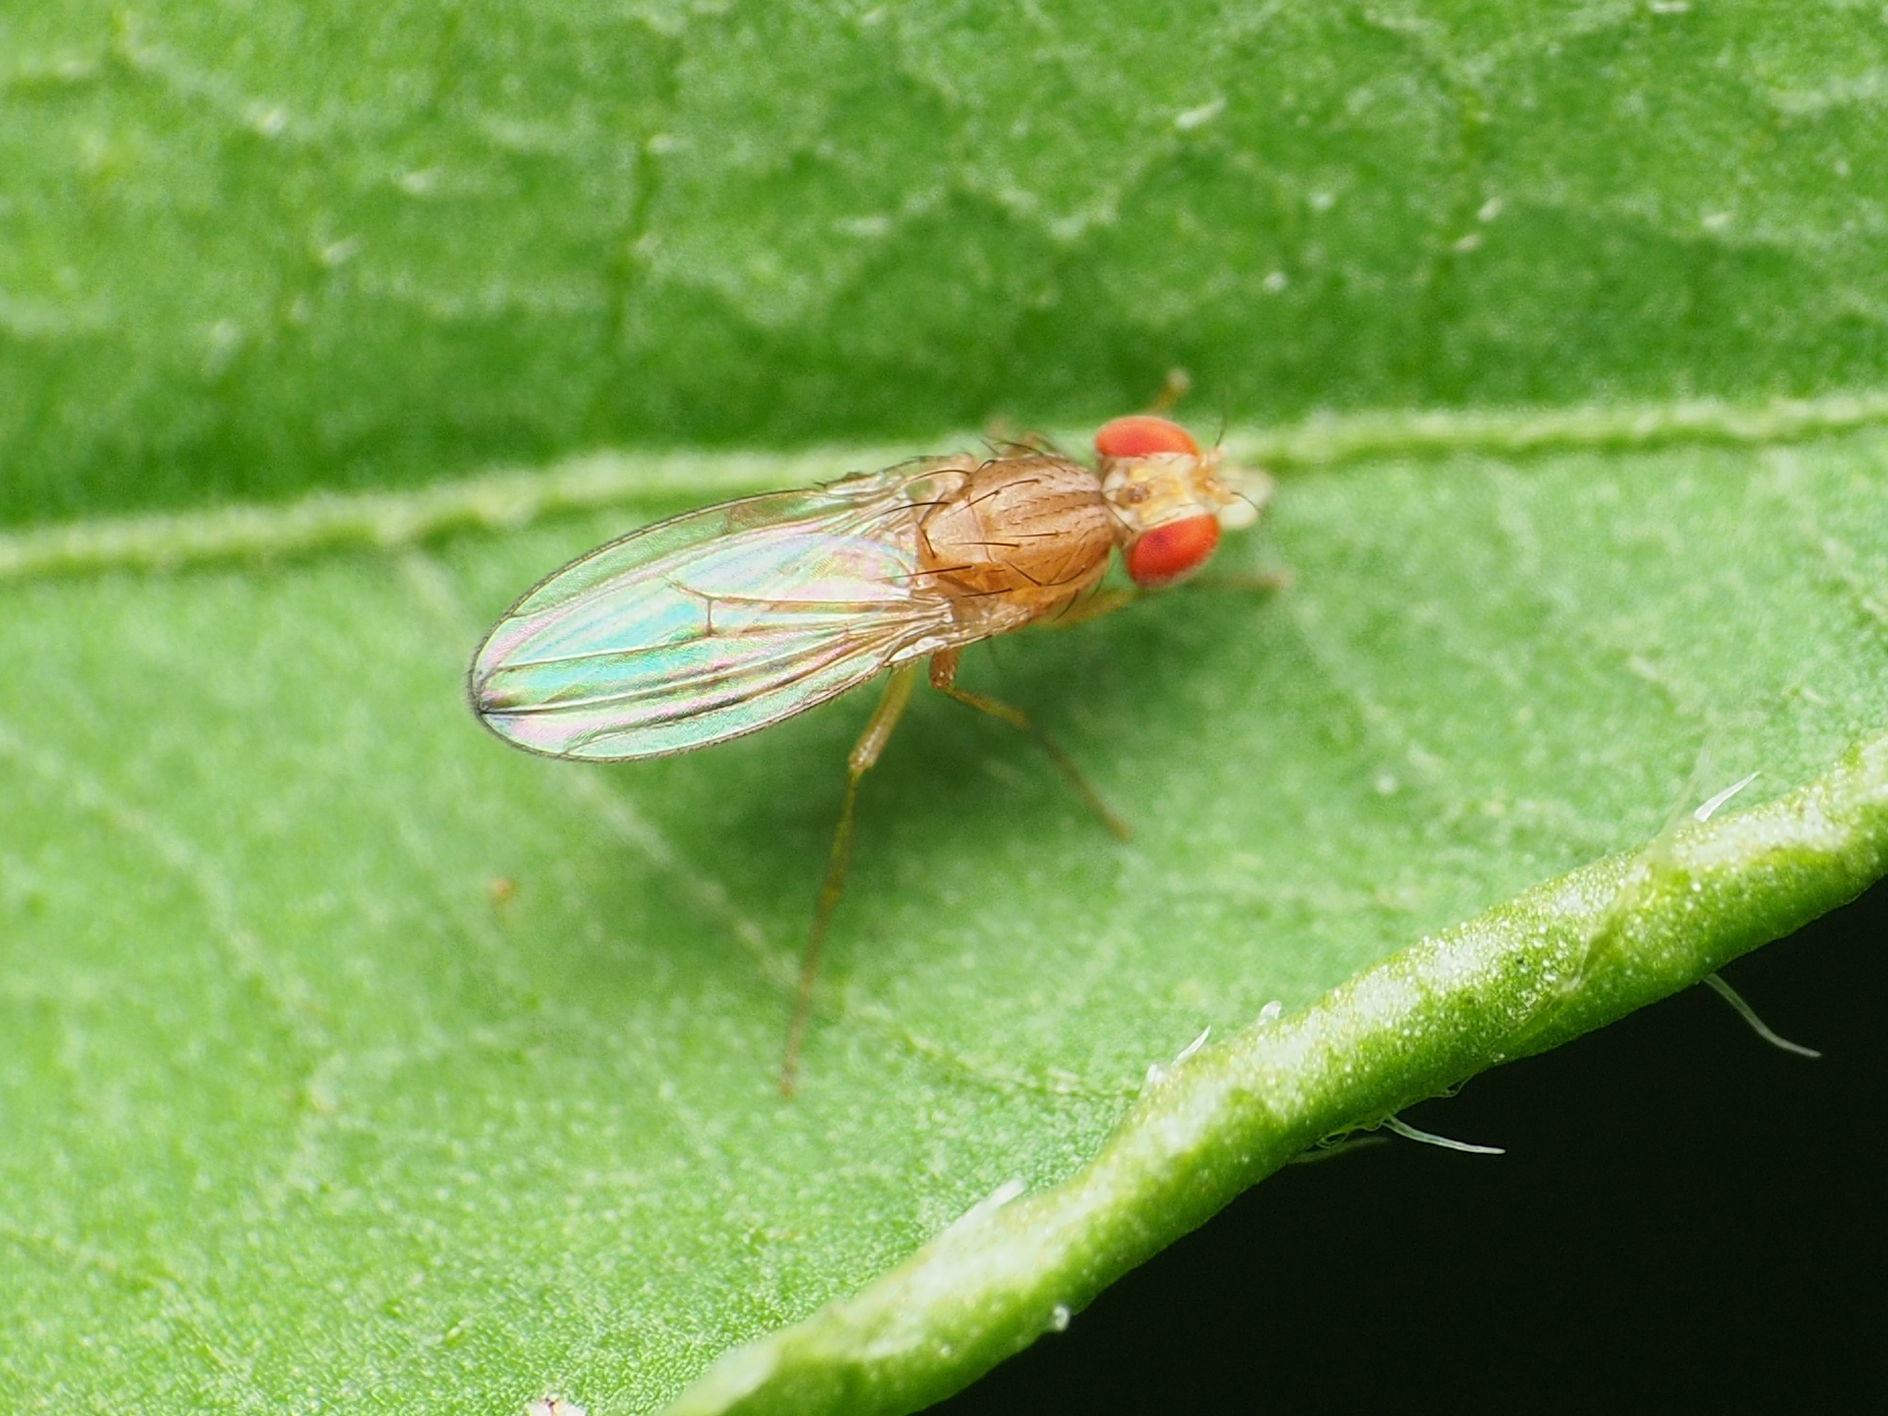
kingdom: Animalia
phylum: Arthropoda
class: Insecta
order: Diptera
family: Drosophilidae
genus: Scaptomyza
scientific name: Scaptomyza adusta
